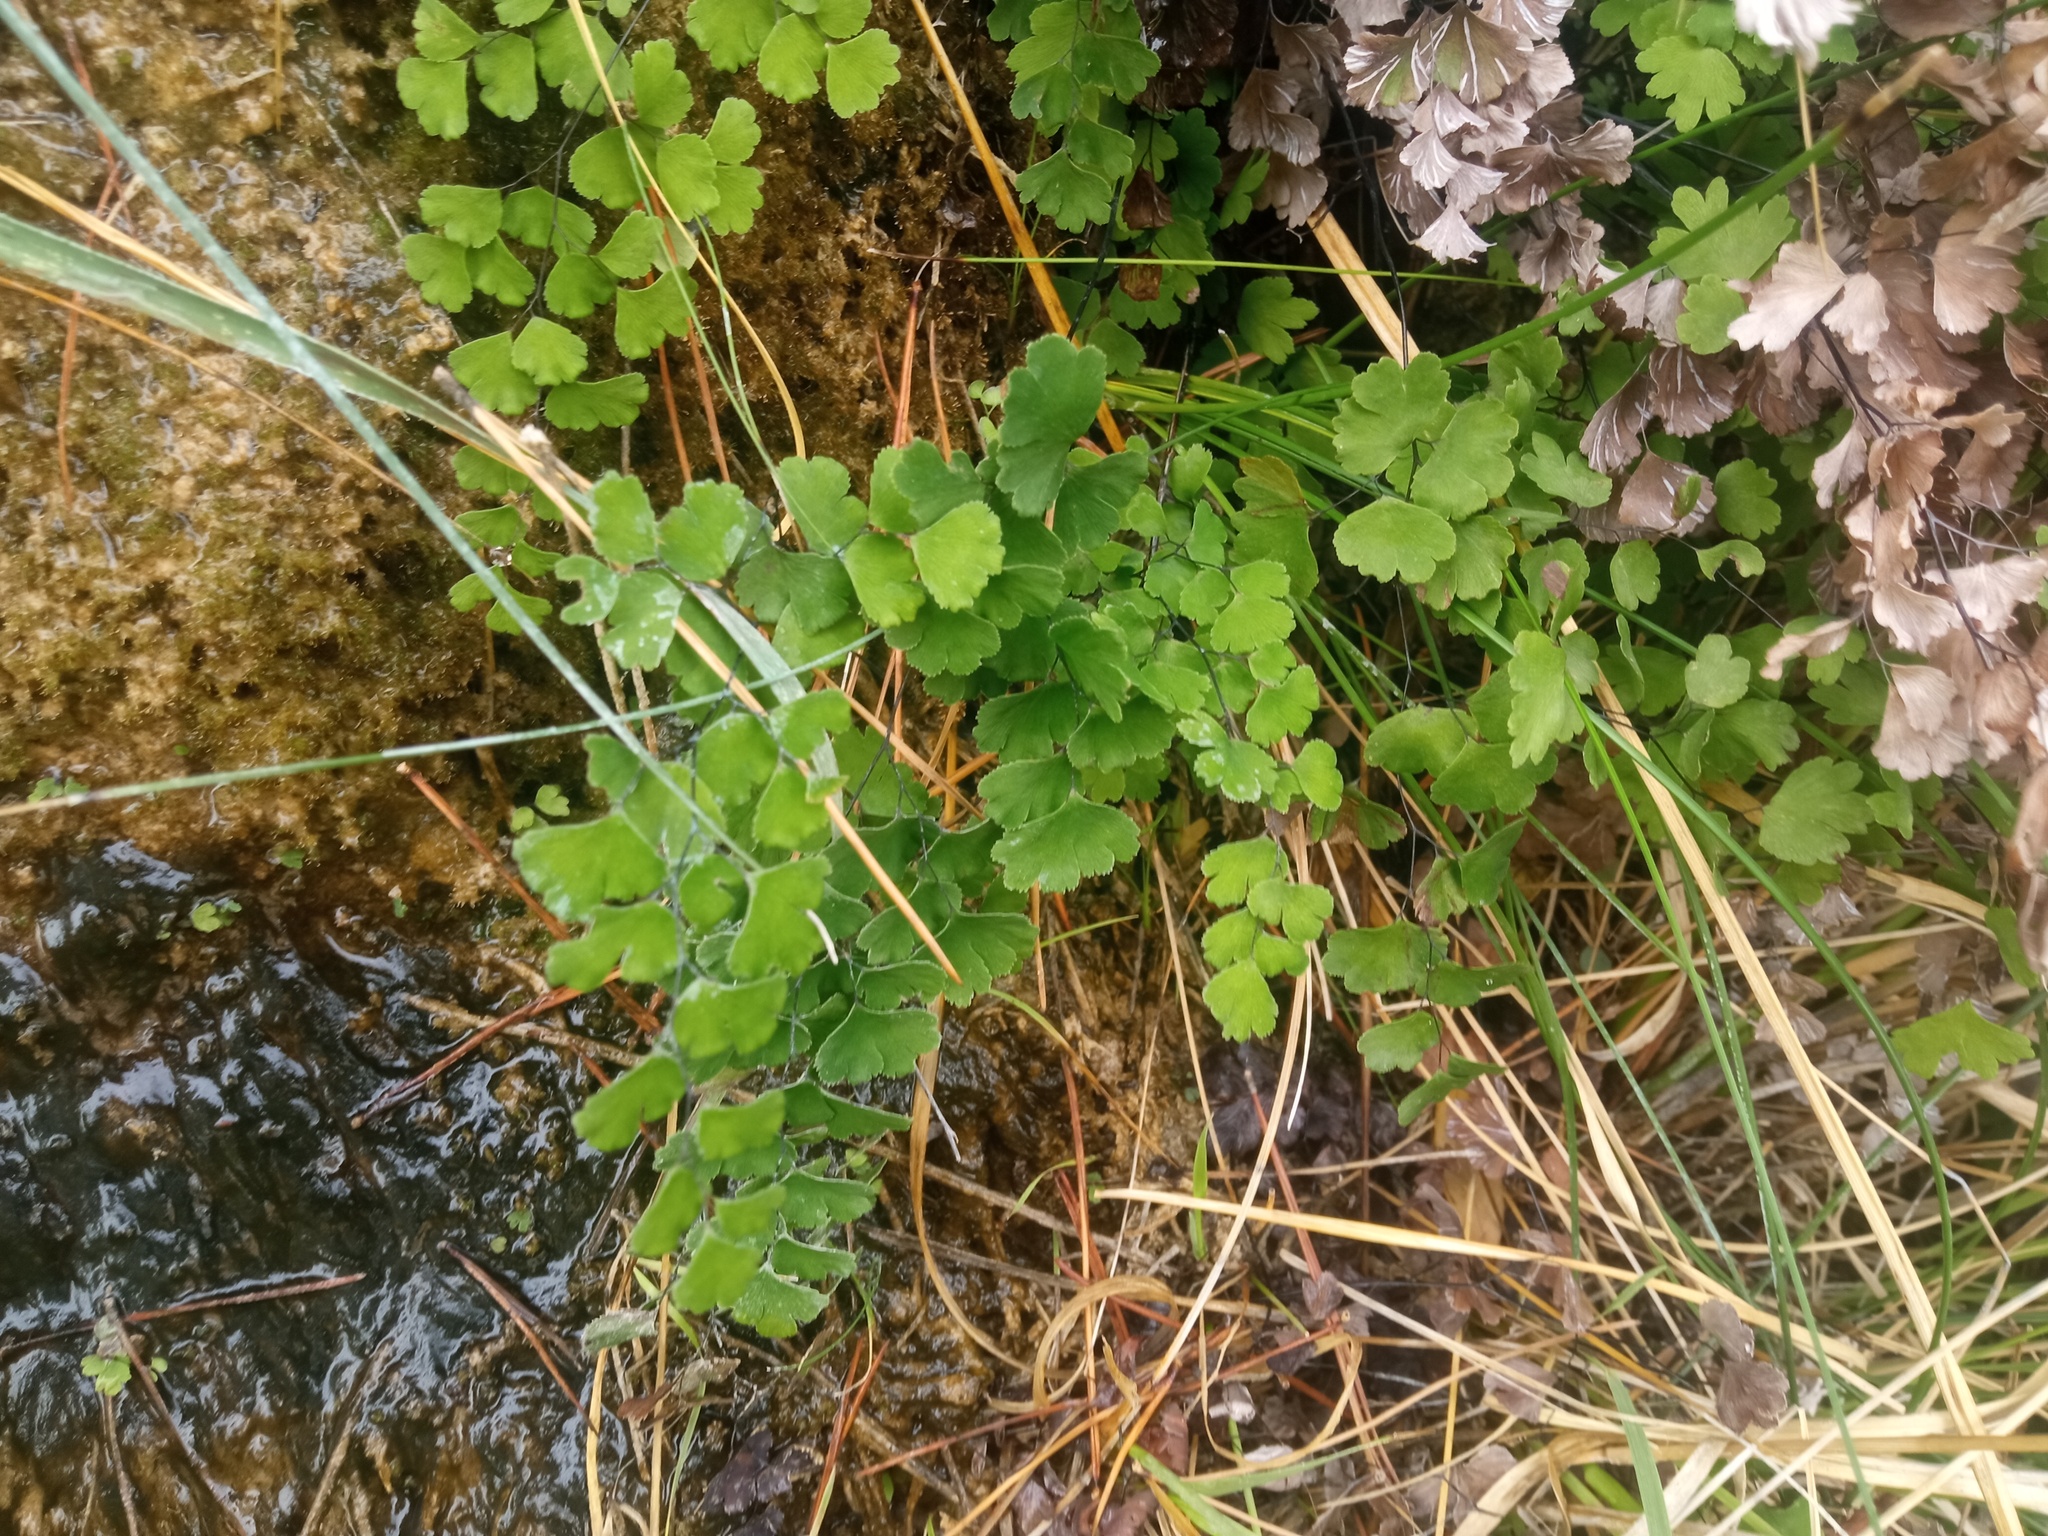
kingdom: Plantae
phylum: Tracheophyta
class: Polypodiopsida
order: Polypodiales
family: Pteridaceae
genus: Adiantum
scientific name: Adiantum capillus-veneris
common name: Maidenhair fern
